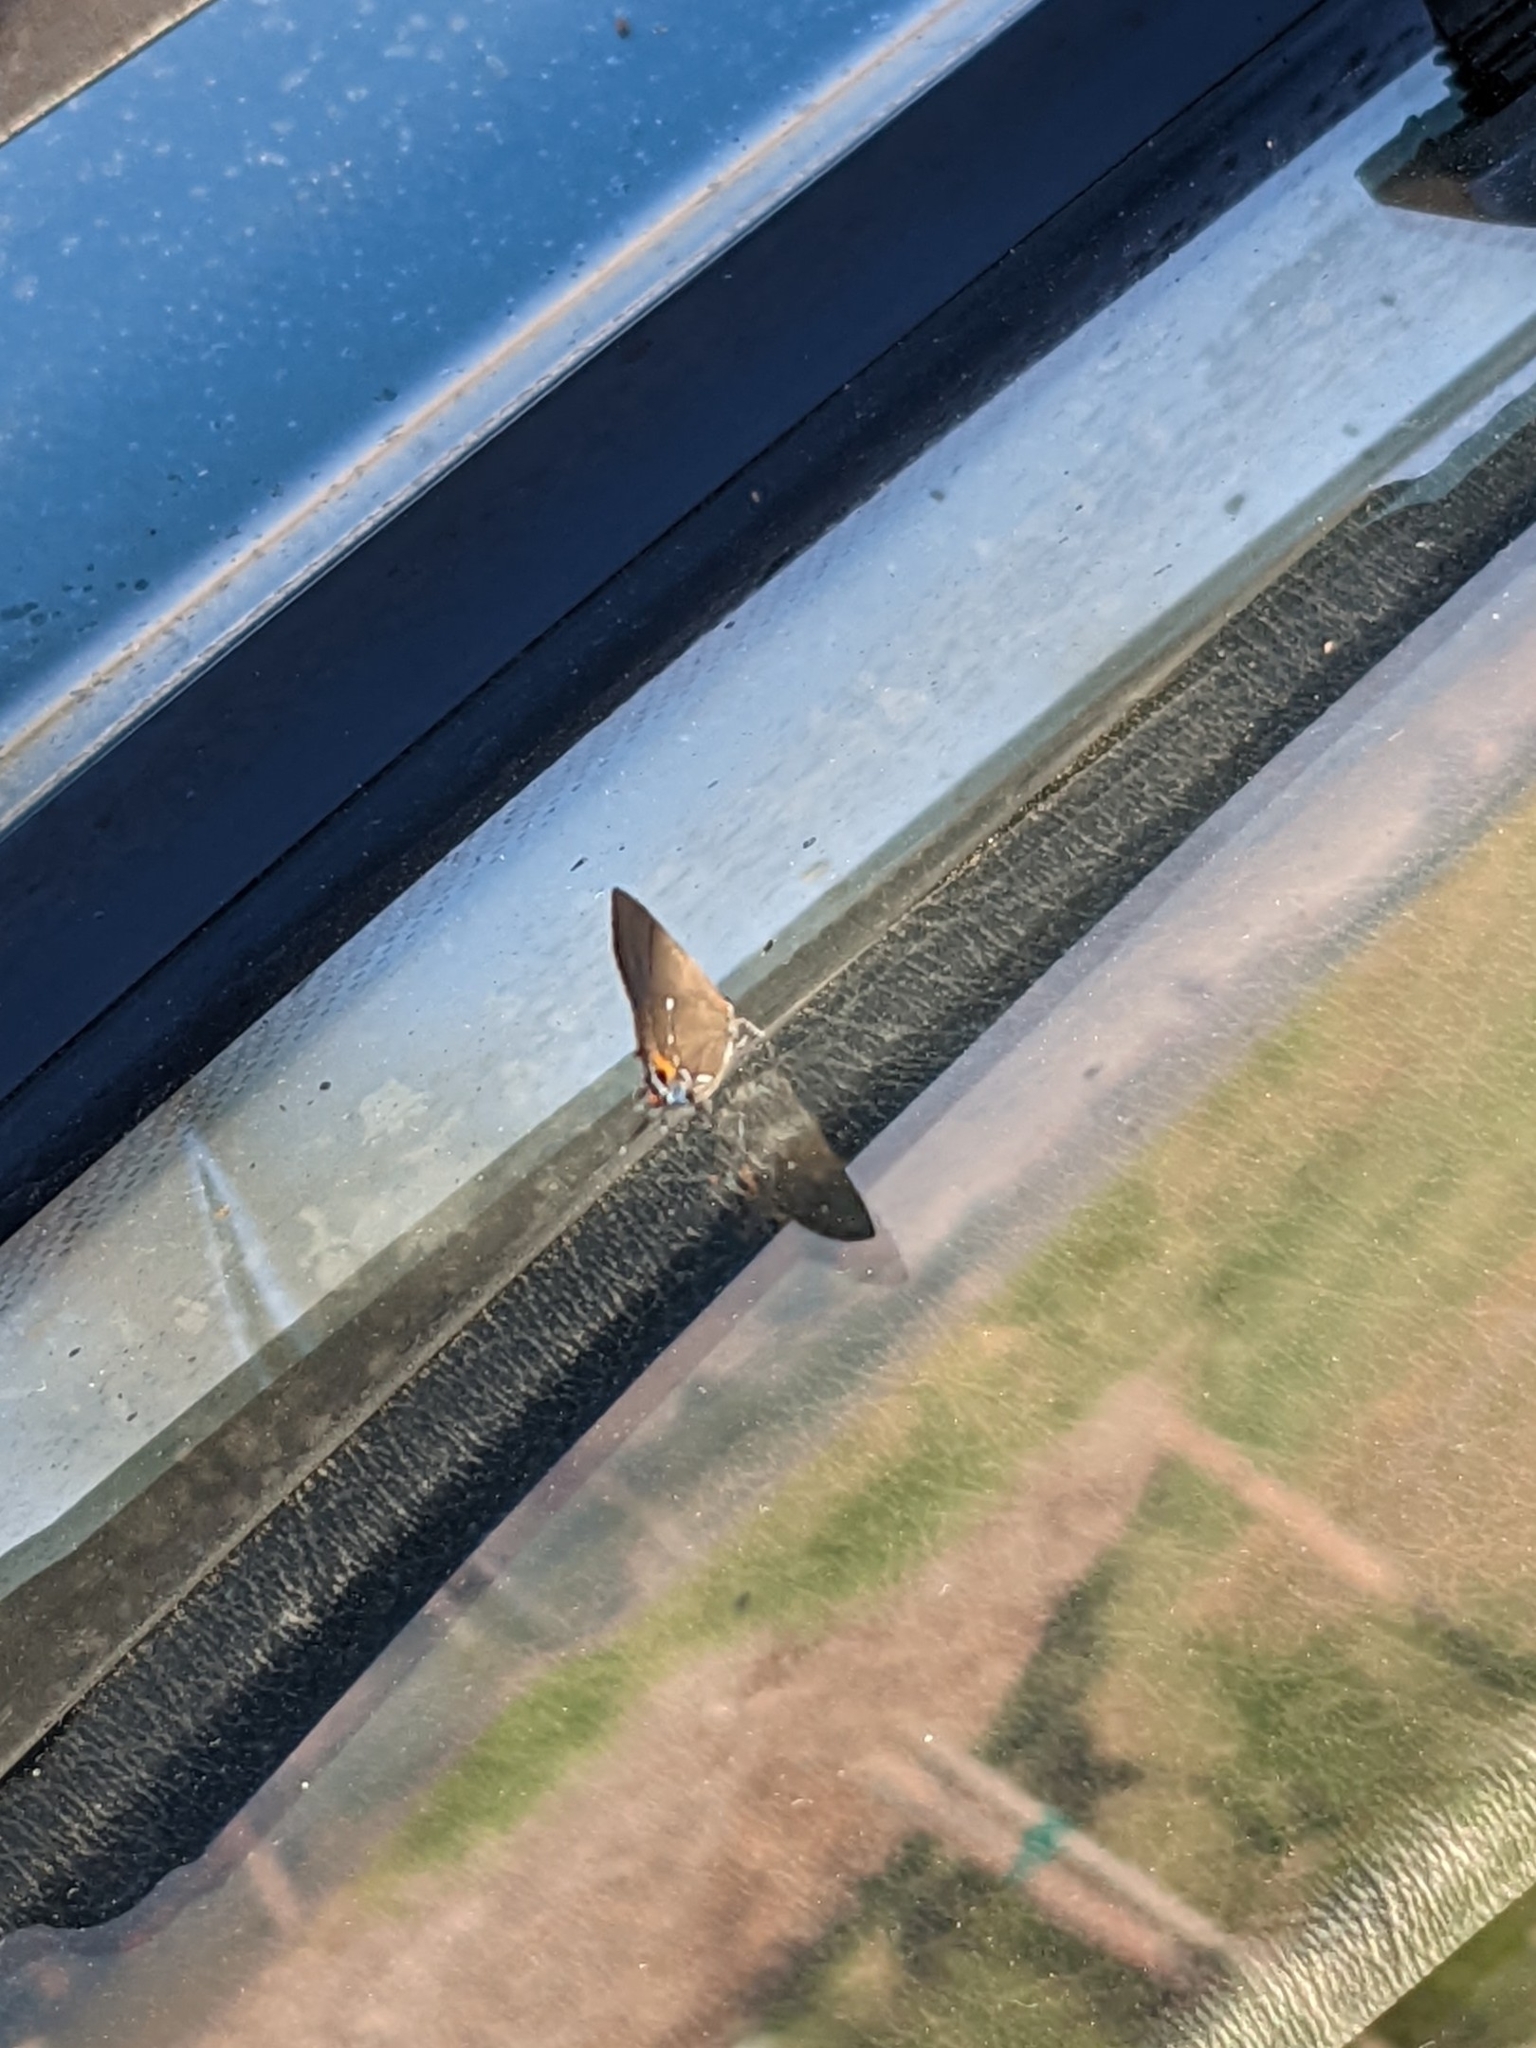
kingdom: Animalia
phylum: Arthropoda
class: Insecta
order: Lepidoptera
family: Lycaenidae
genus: Thecla
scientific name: Thecla angelia
